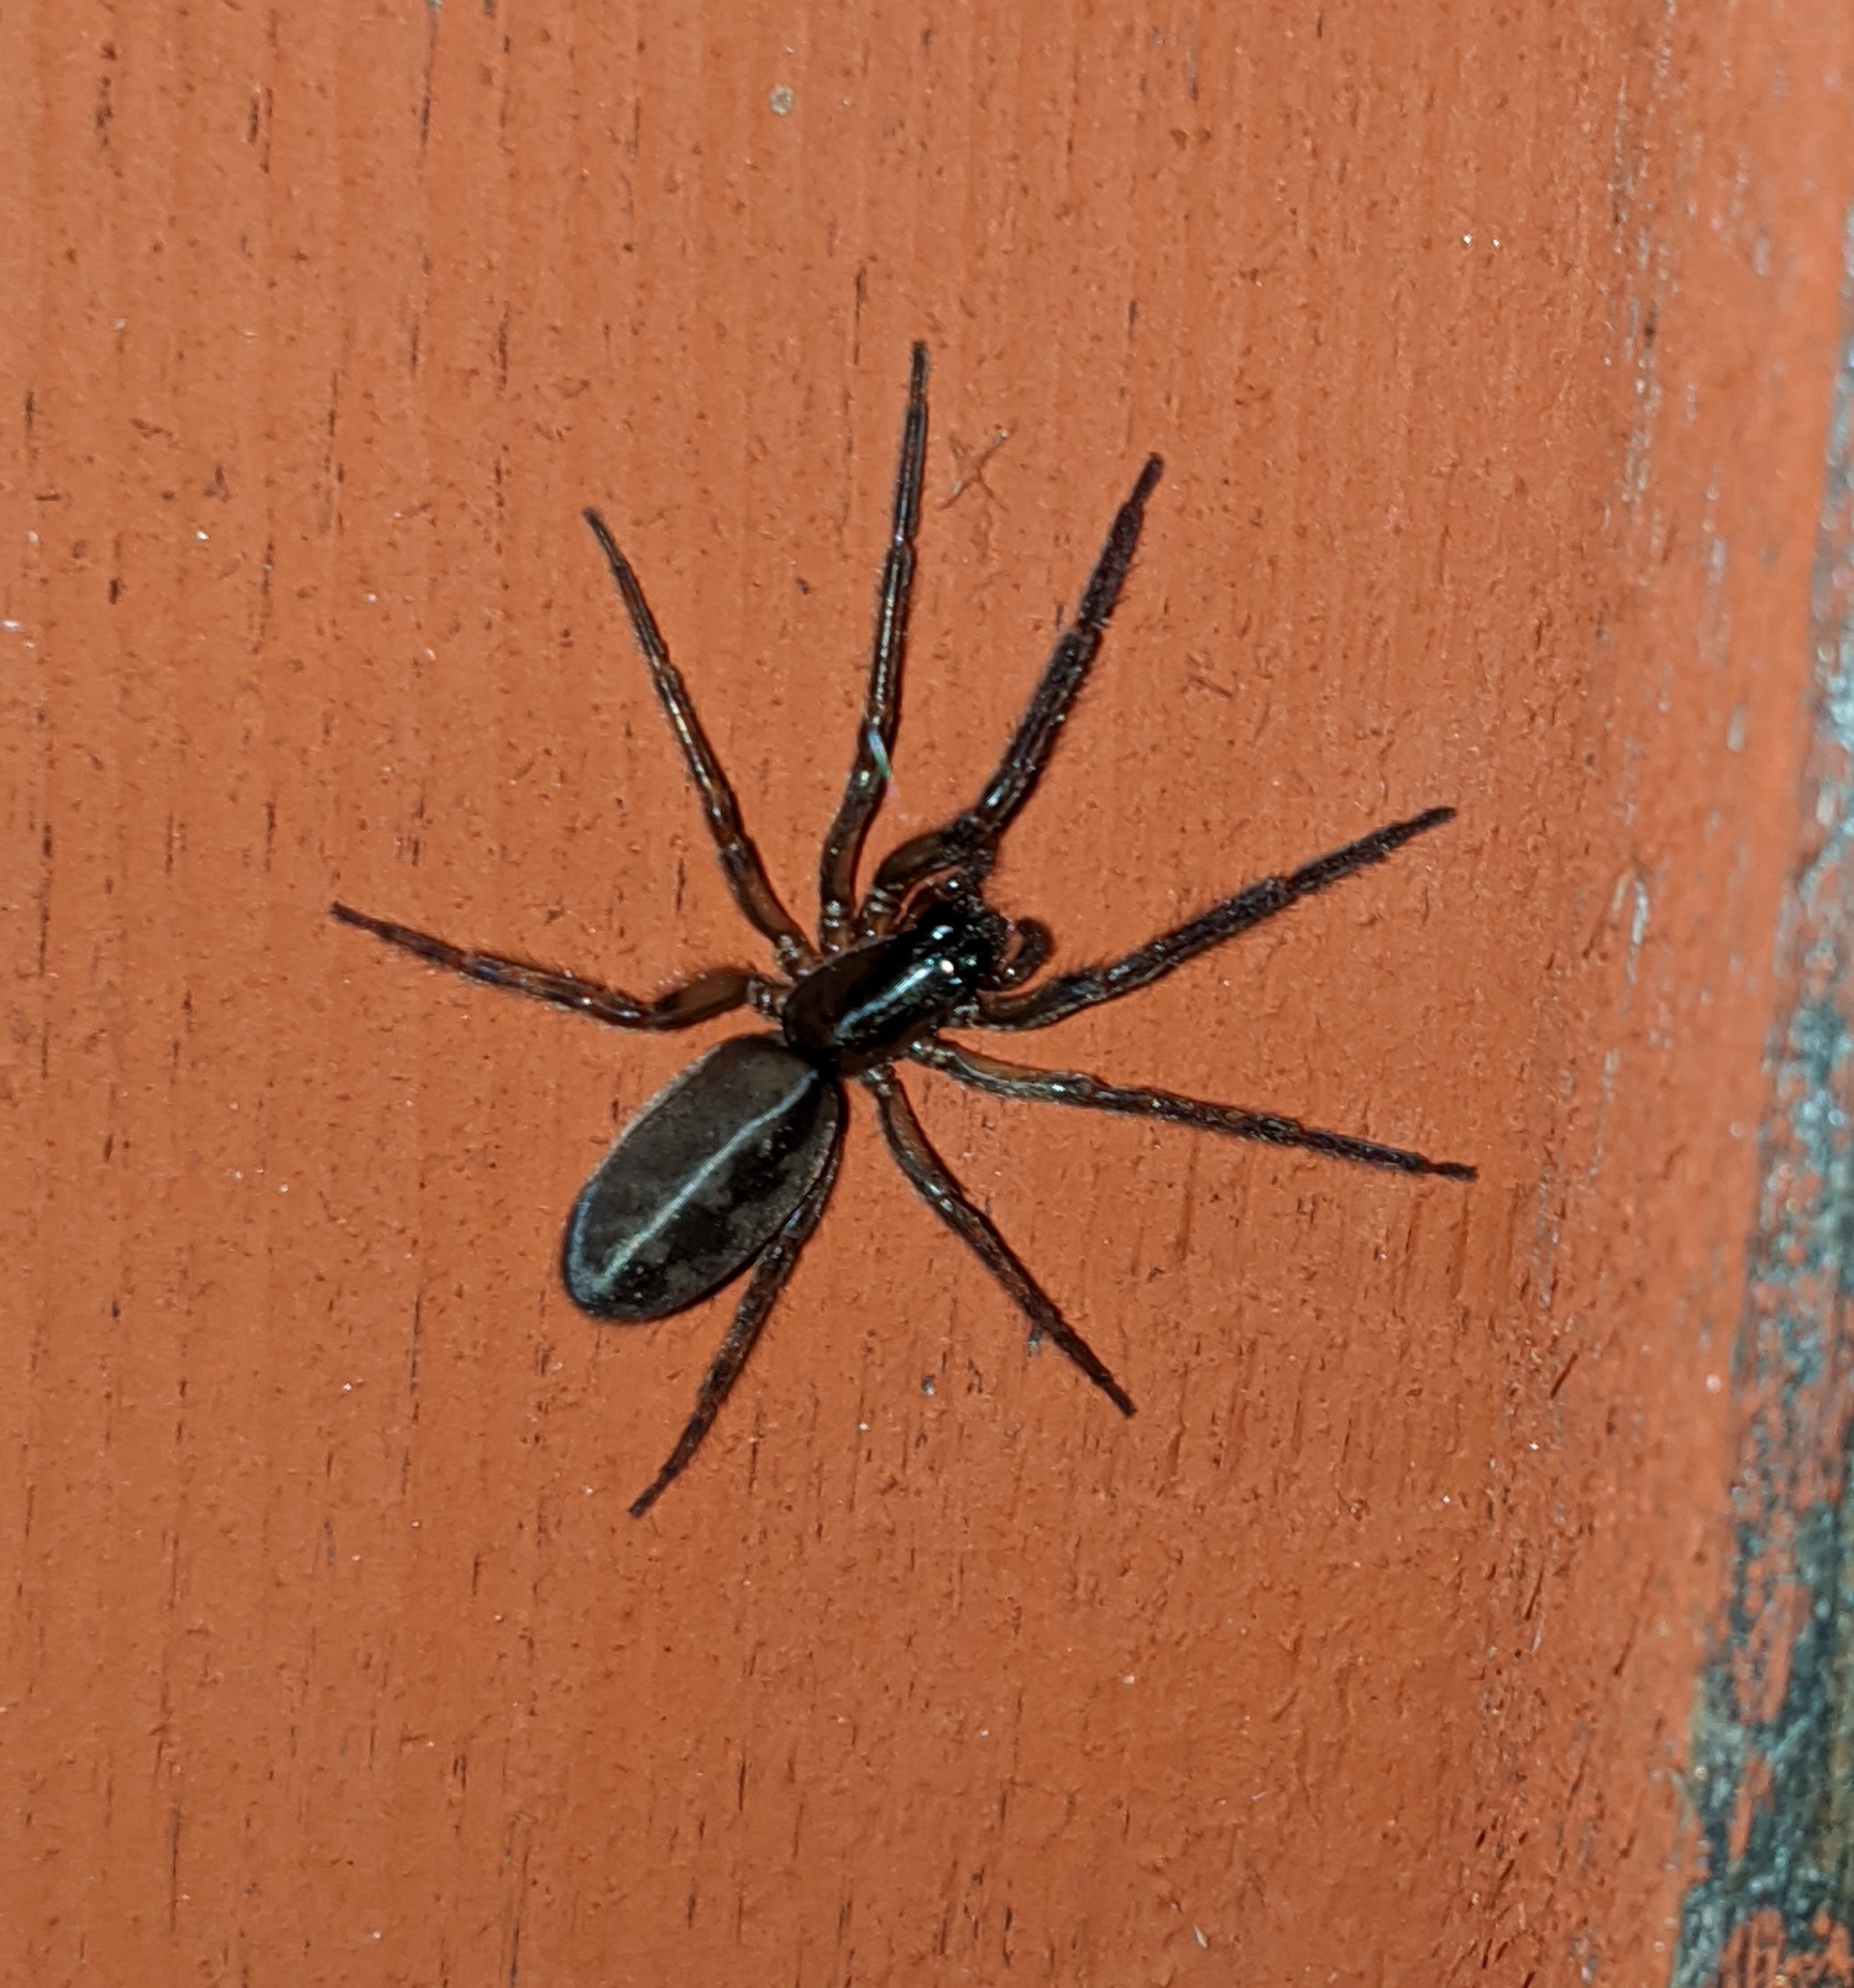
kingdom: Animalia
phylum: Arthropoda
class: Arachnida
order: Araneae
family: Segestriidae
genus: Segestria
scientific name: Segestria pacifica
